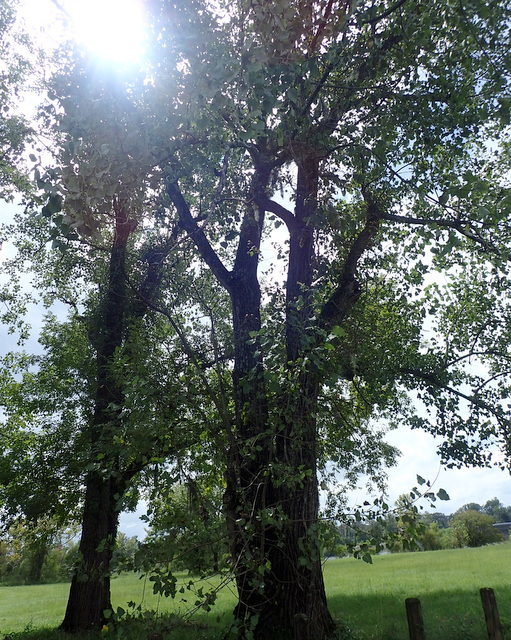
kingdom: Plantae
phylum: Tracheophyta
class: Magnoliopsida
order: Malpighiales
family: Salicaceae
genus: Populus
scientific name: Populus deltoides
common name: Eastern cottonwood
